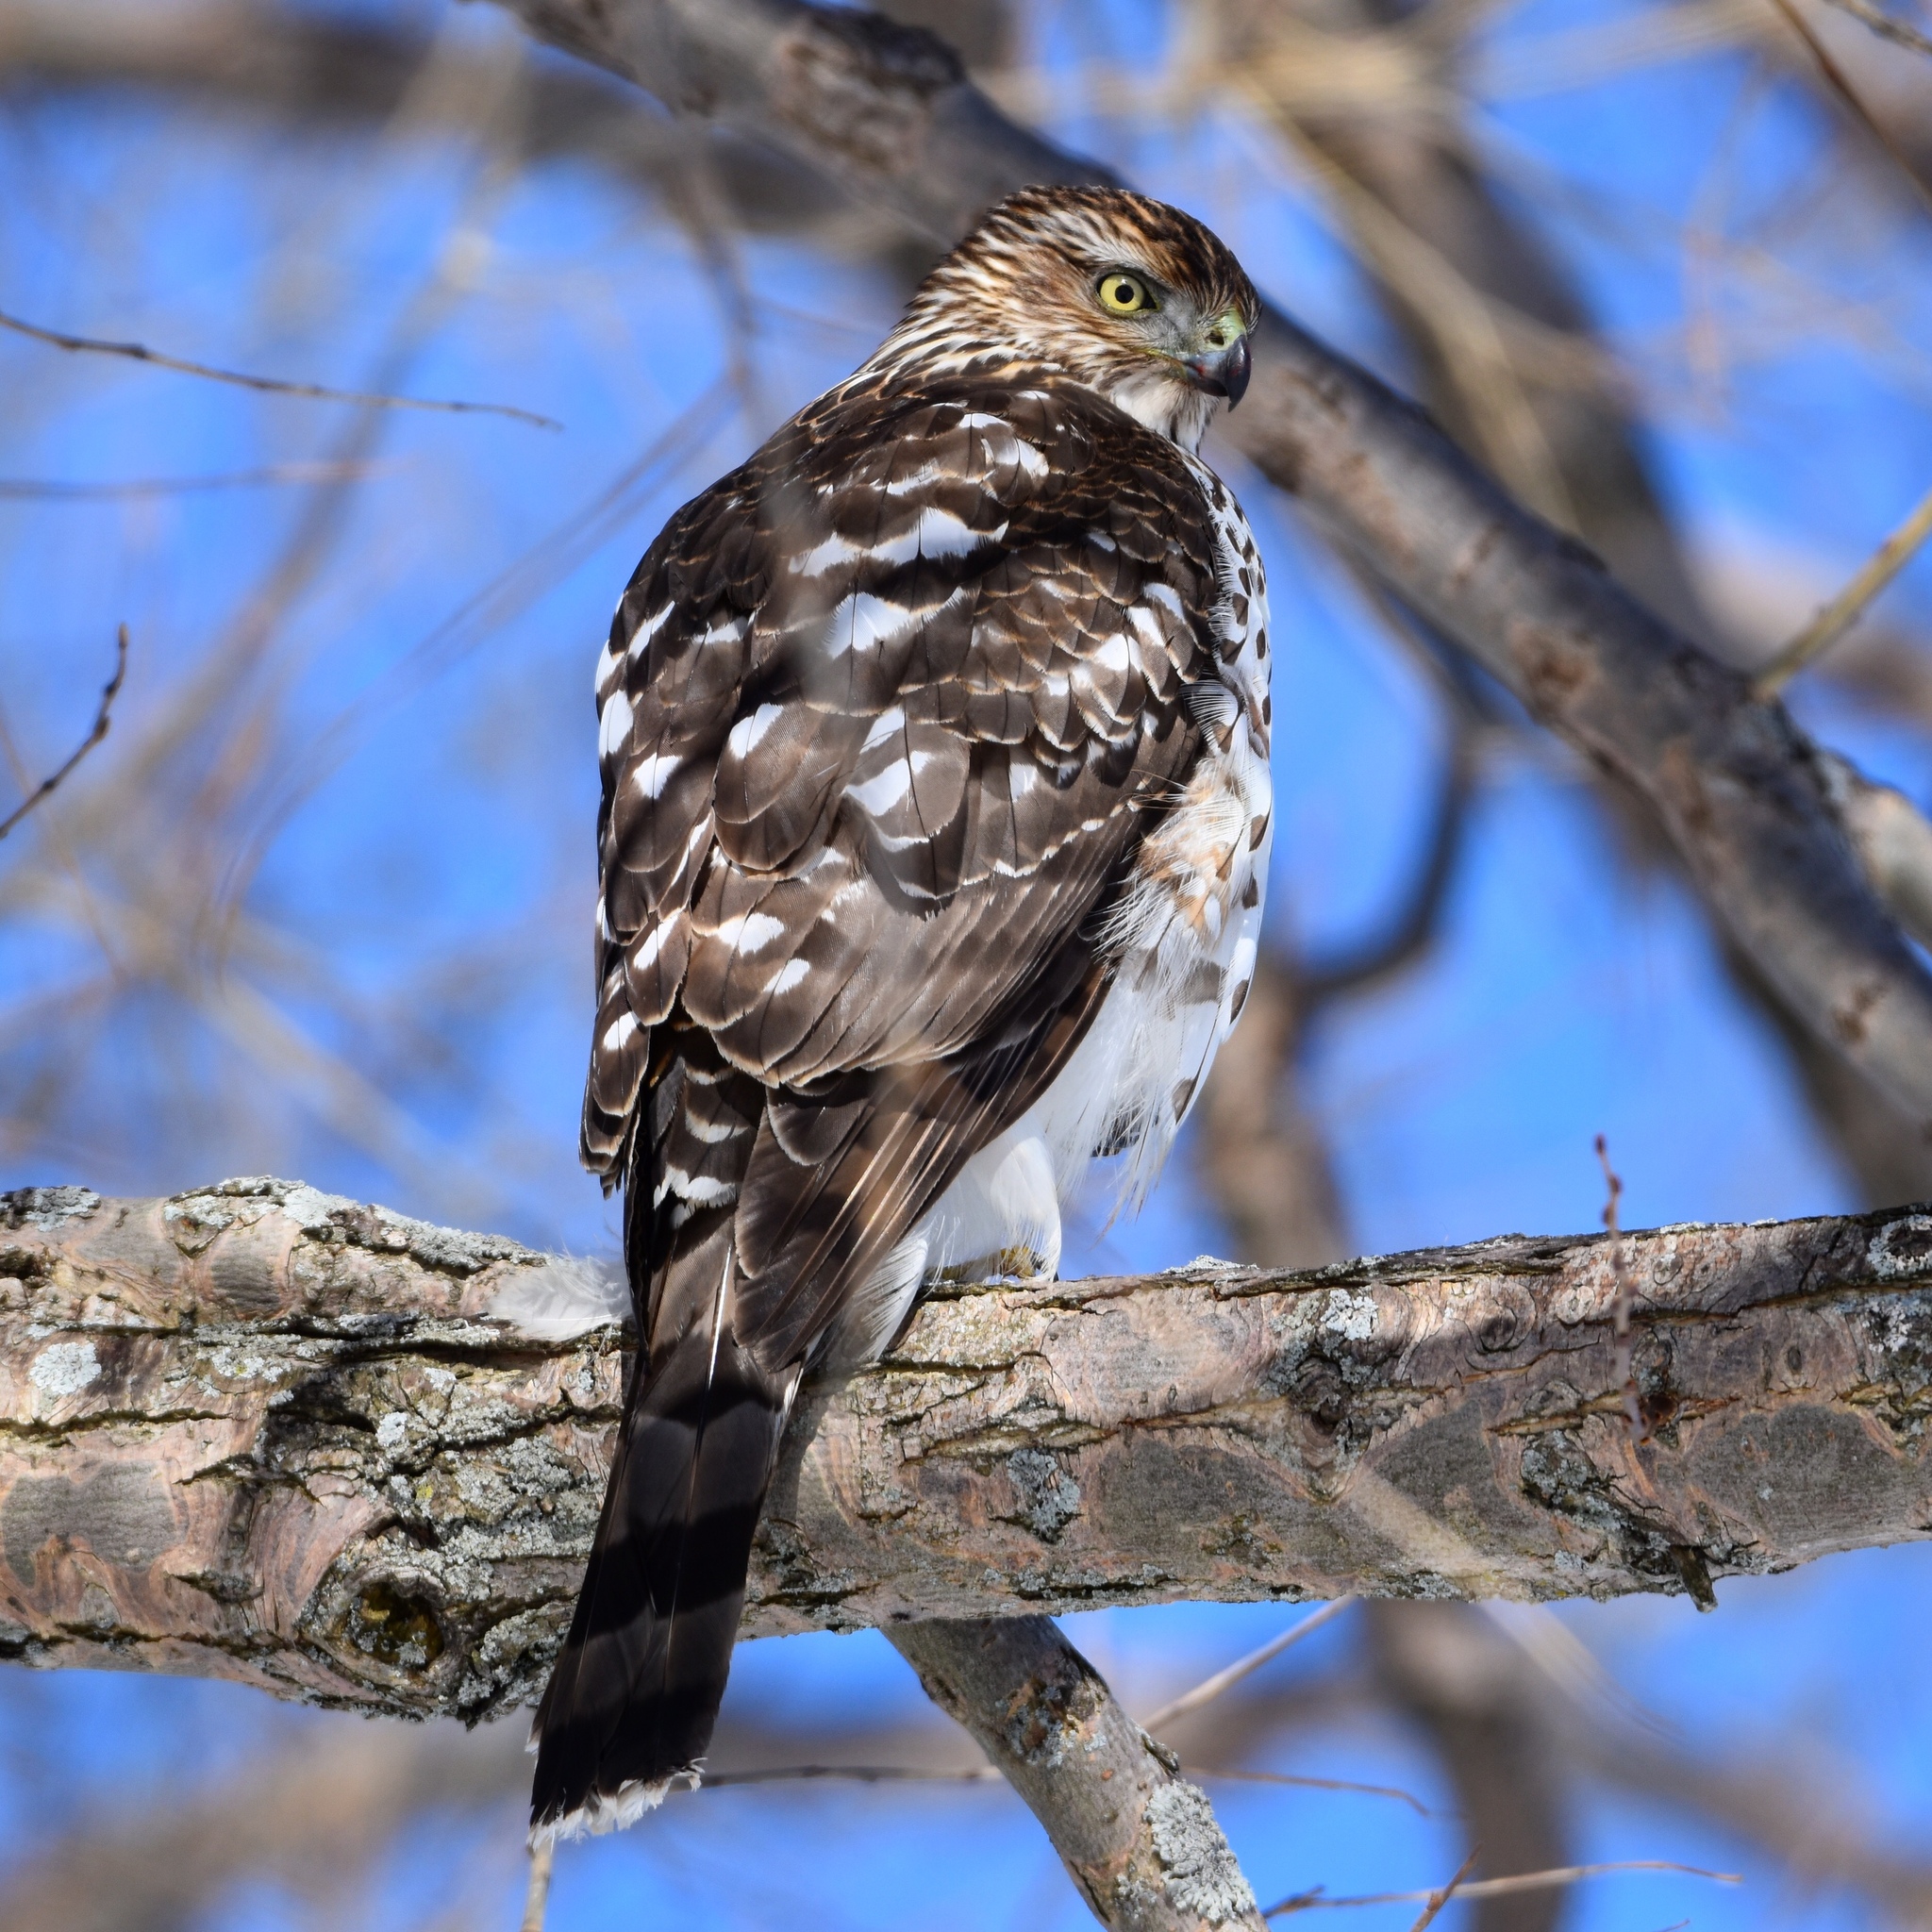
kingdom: Animalia
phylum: Chordata
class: Aves
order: Accipitriformes
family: Accipitridae
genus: Accipiter
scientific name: Accipiter cooperii
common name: Cooper's hawk
